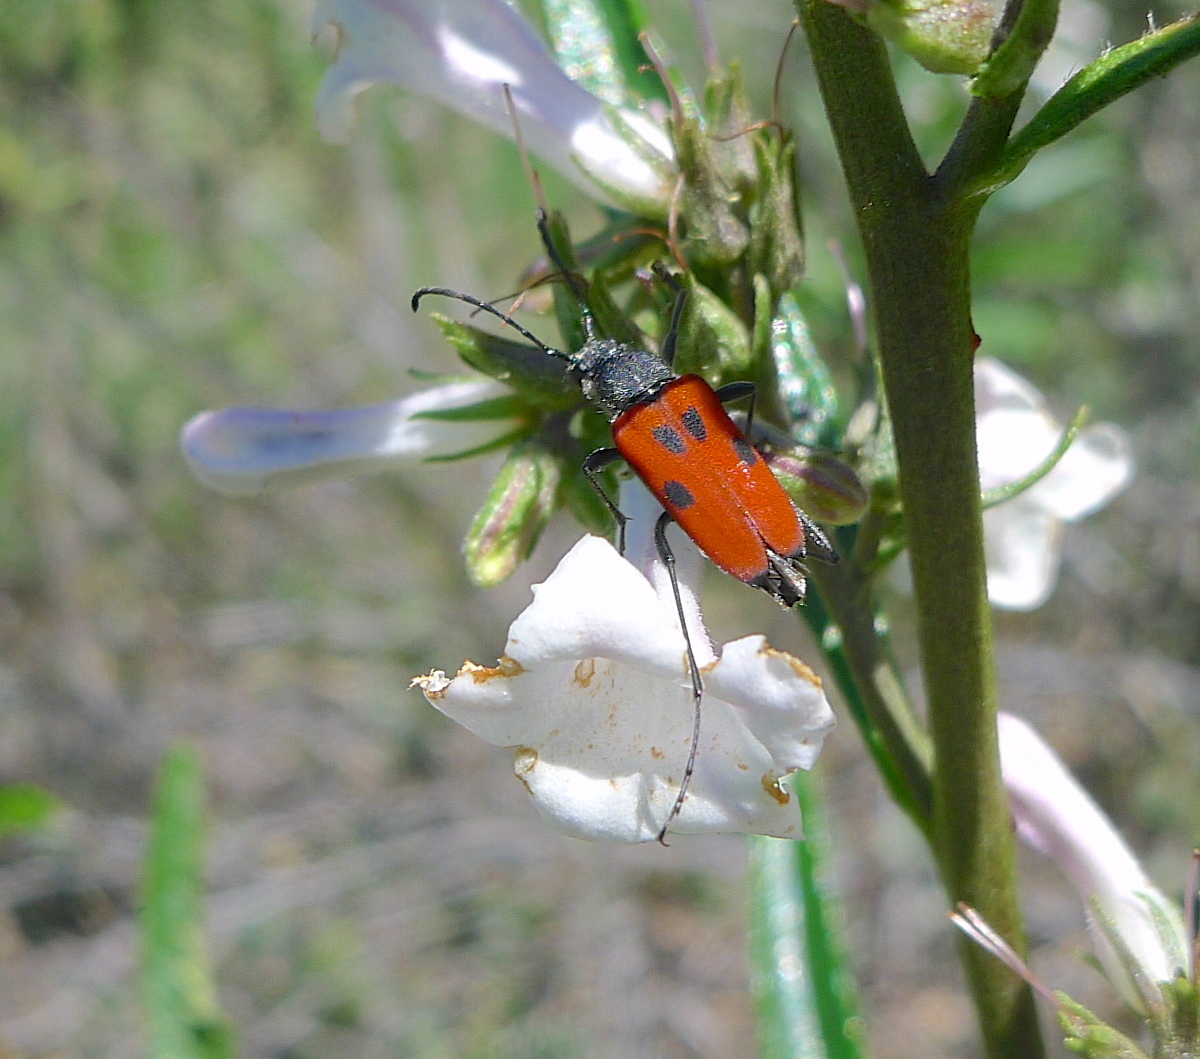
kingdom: Animalia
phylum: Arthropoda
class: Insecta
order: Coleoptera
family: Cerambycidae
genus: Anastrangalia
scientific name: Anastrangalia laetifica
